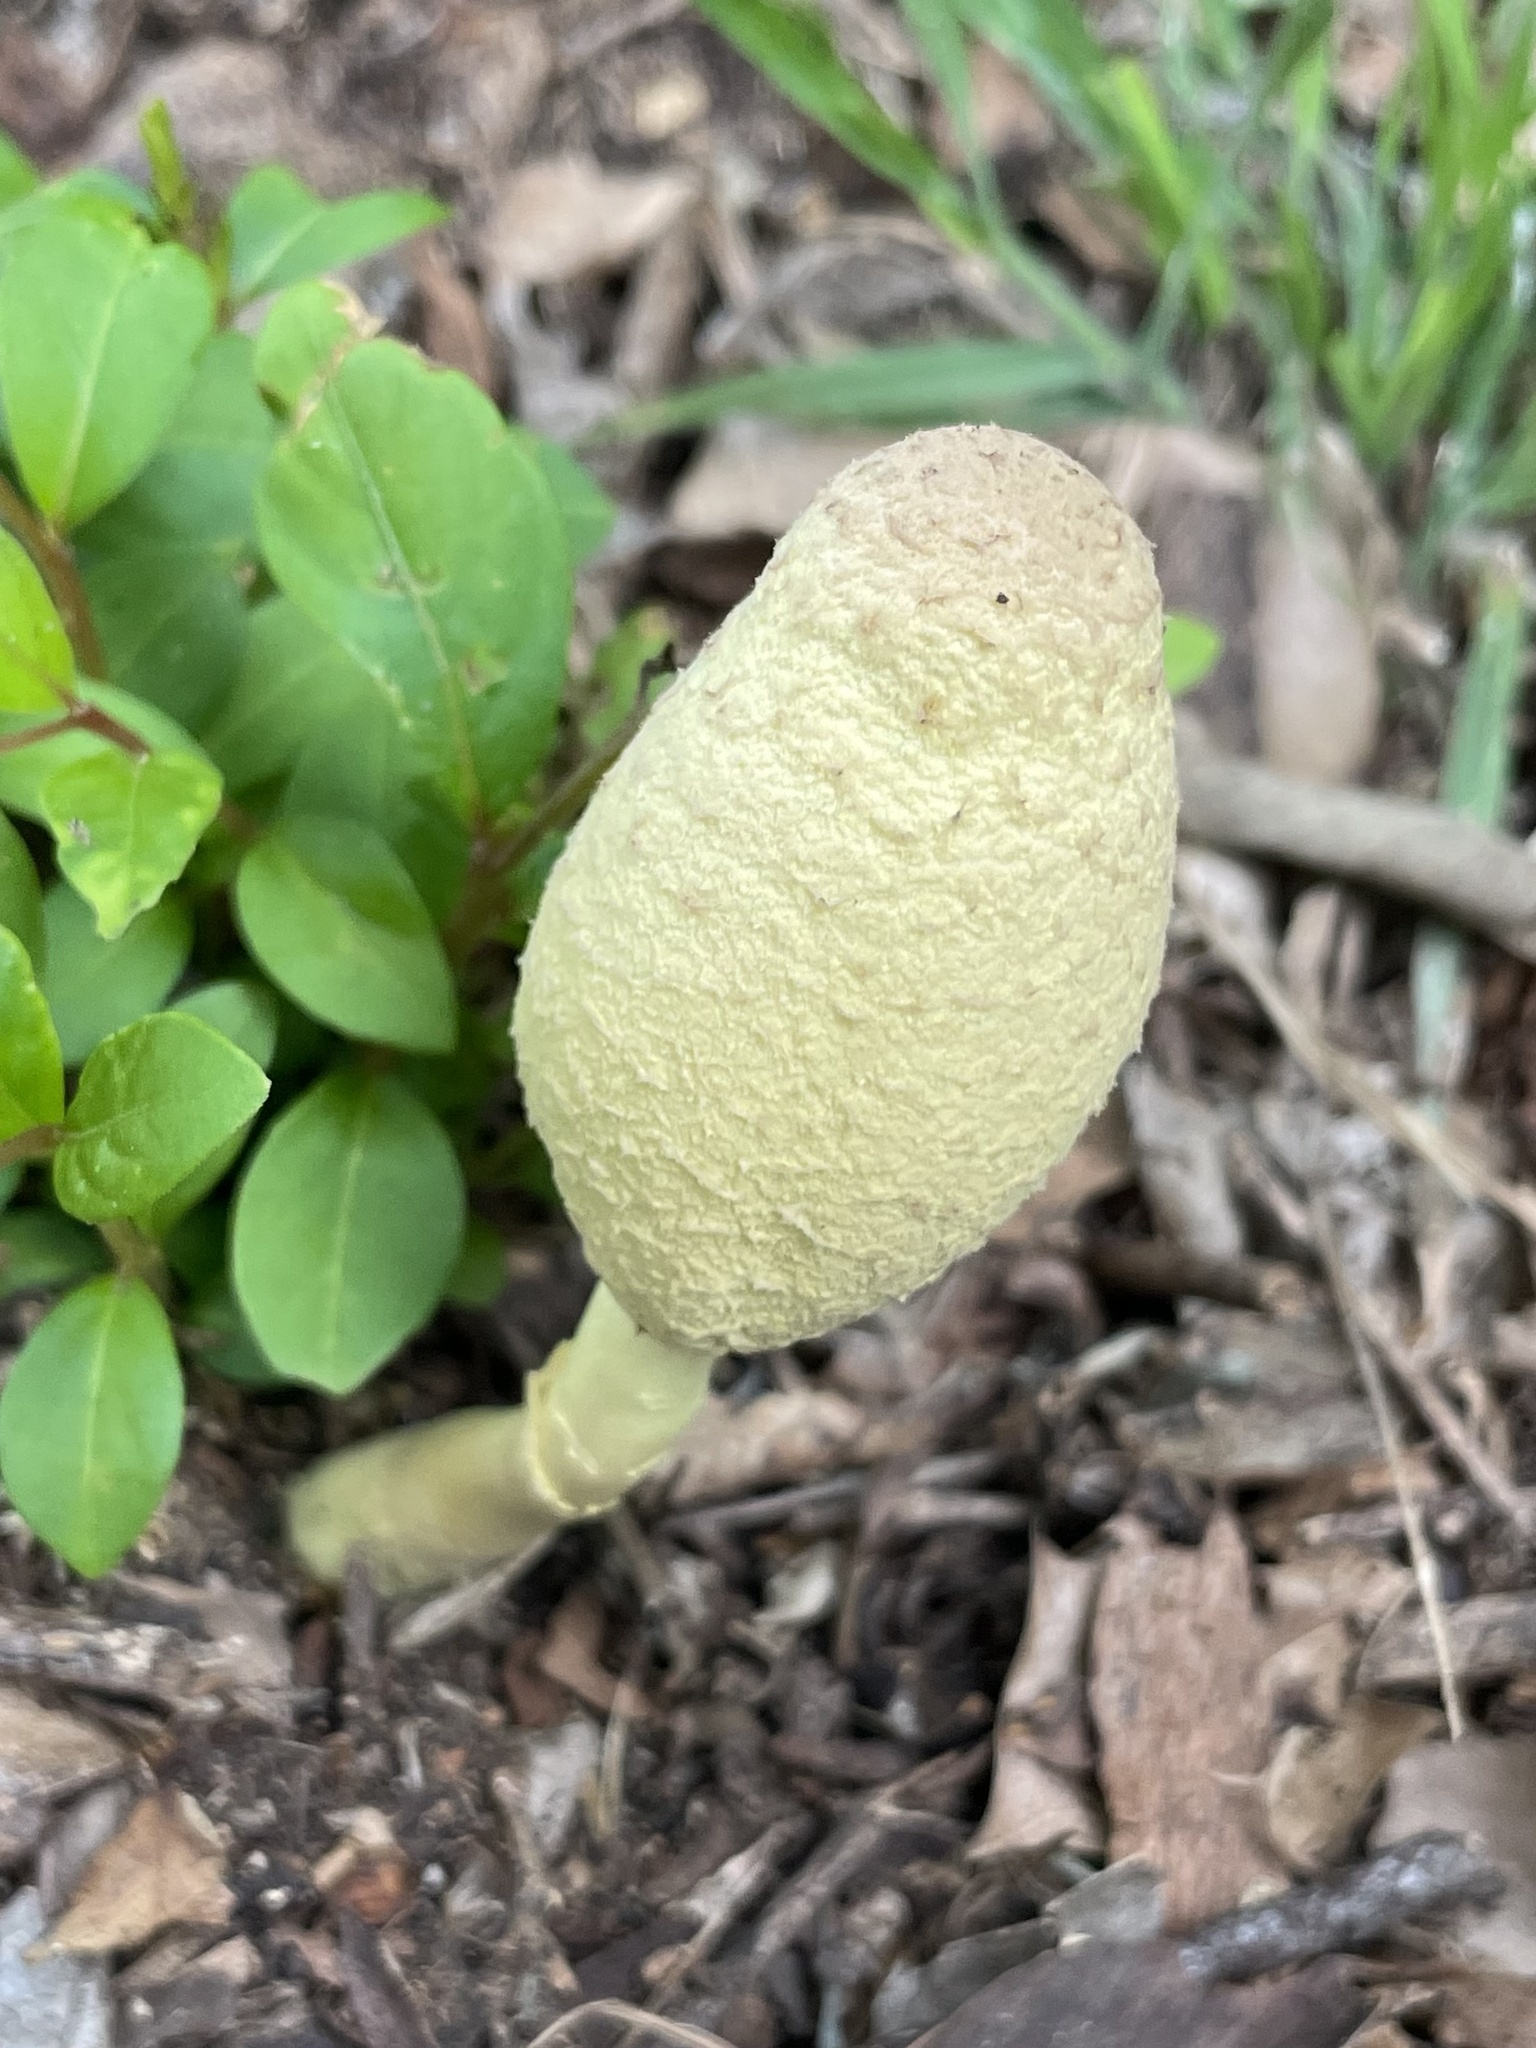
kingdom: Fungi
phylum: Basidiomycota
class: Agaricomycetes
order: Agaricales
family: Agaricaceae
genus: Leucocoprinus
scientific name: Leucocoprinus birnbaumii
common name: Plantpot dapperling
